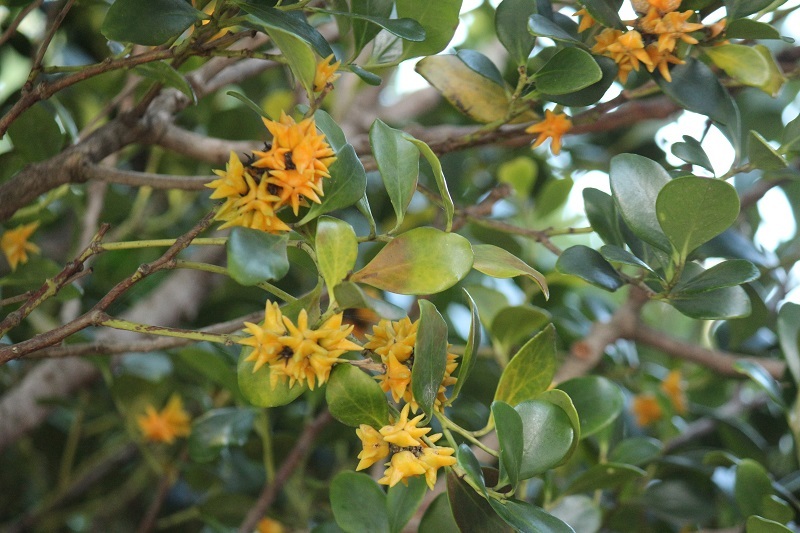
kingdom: Plantae
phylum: Tracheophyta
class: Magnoliopsida
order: Celastrales
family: Celastraceae
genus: Pterocelastrus
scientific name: Pterocelastrus tricuspidatus
